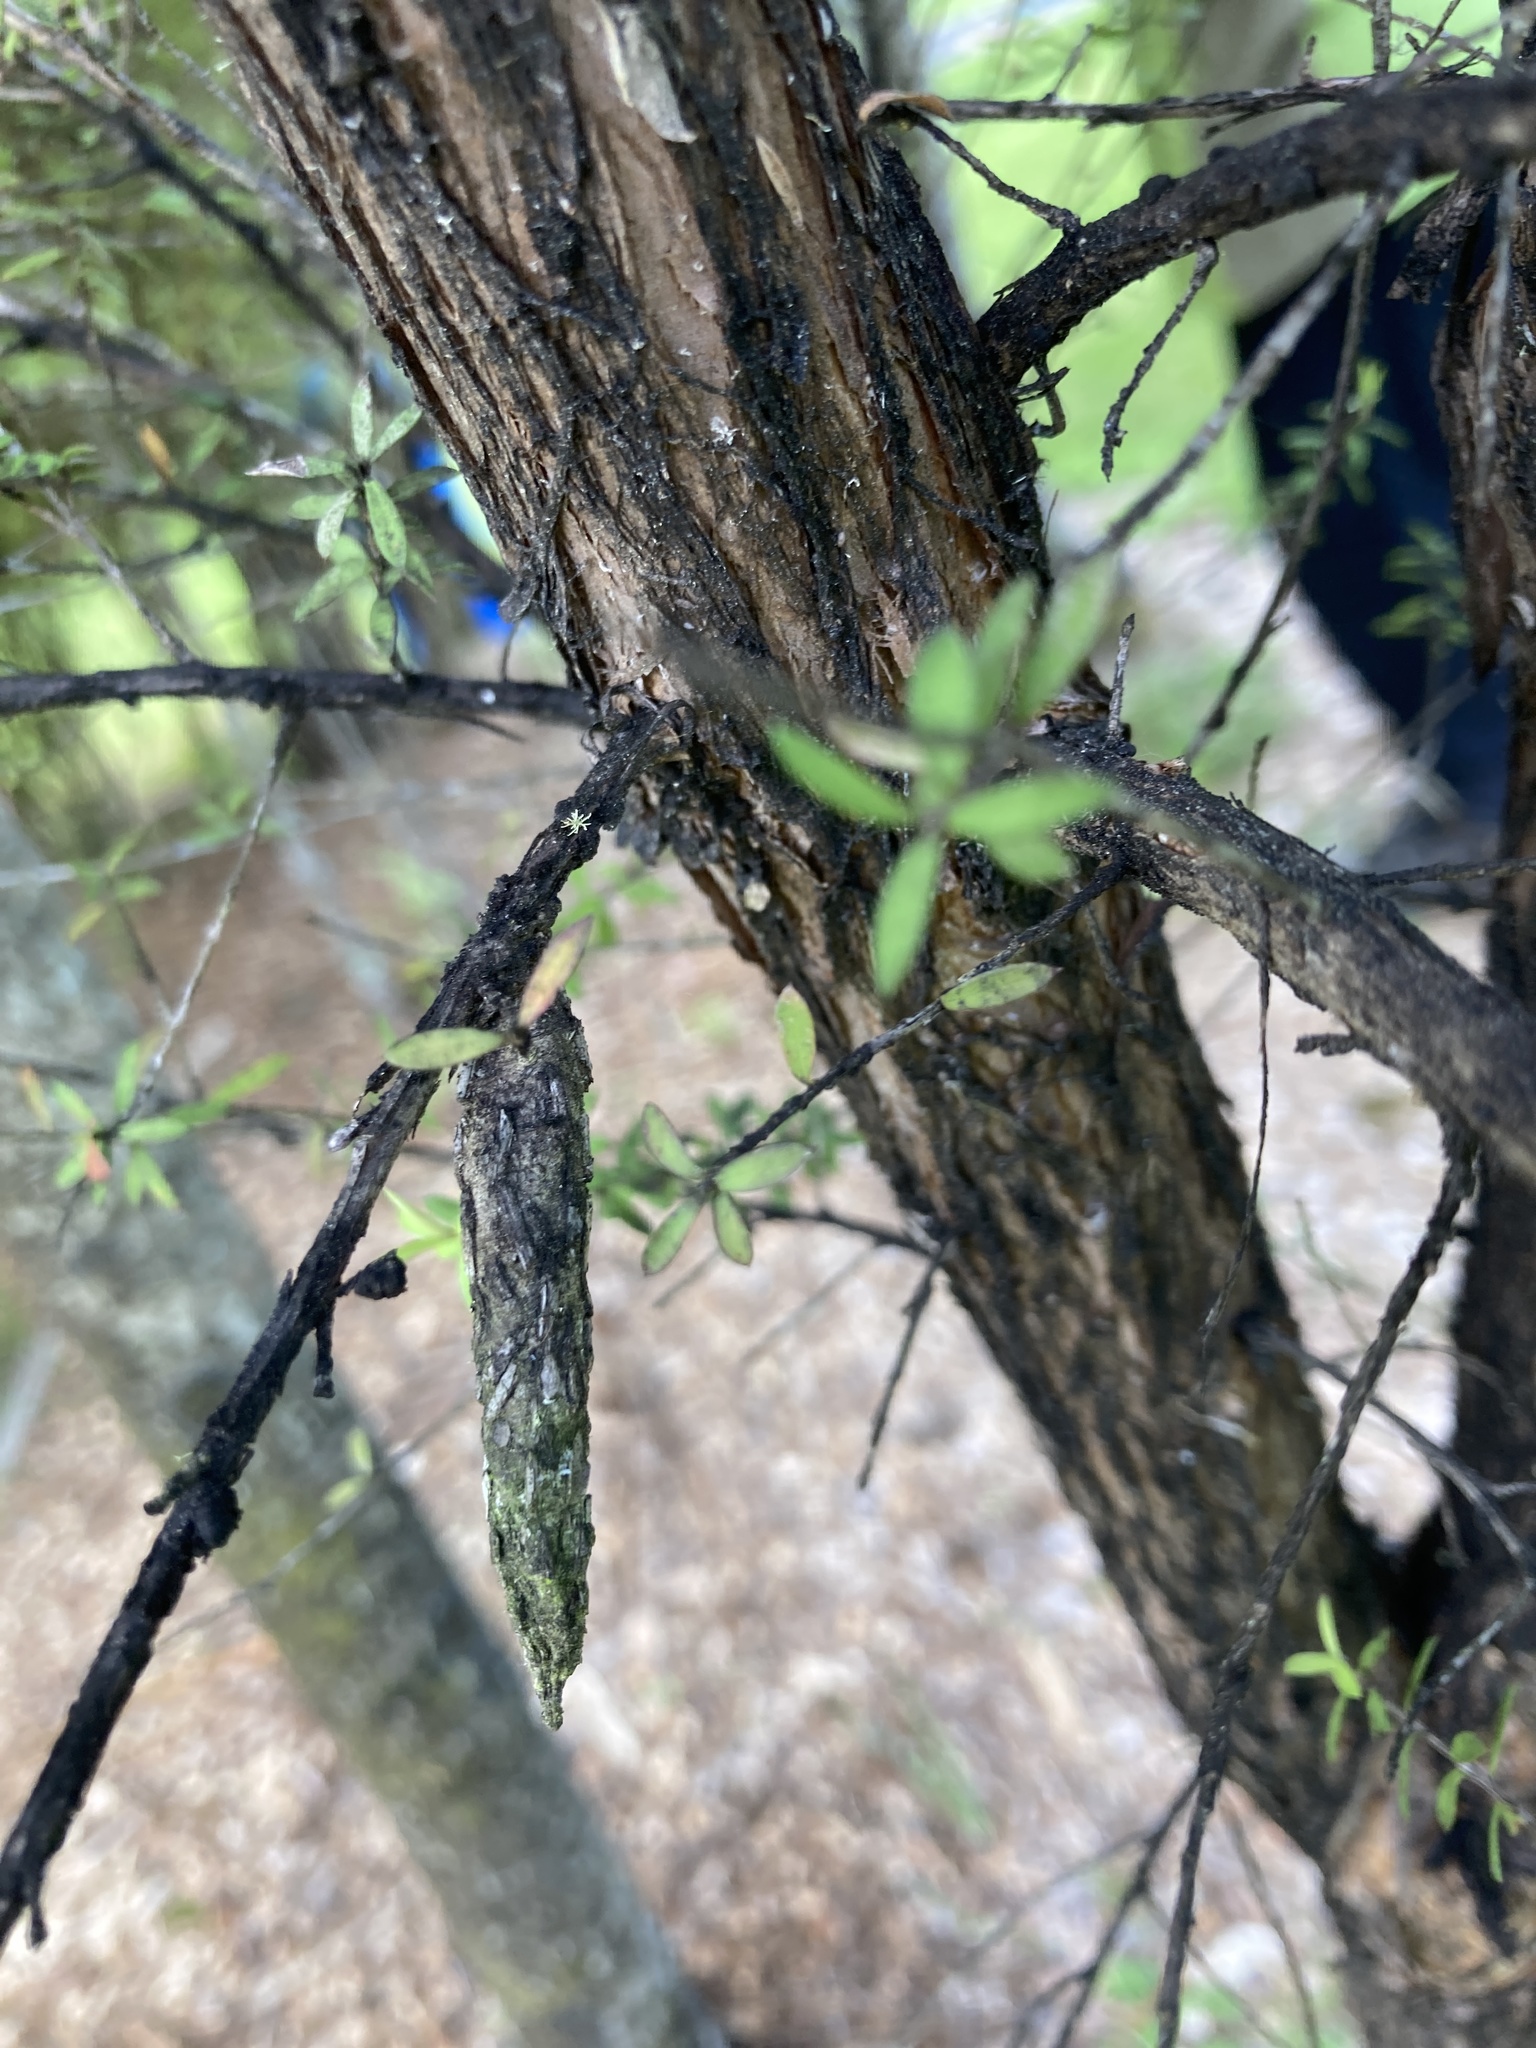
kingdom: Animalia
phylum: Arthropoda
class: Insecta
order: Lepidoptera
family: Psychidae
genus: Liothula
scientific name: Liothula omnivora
